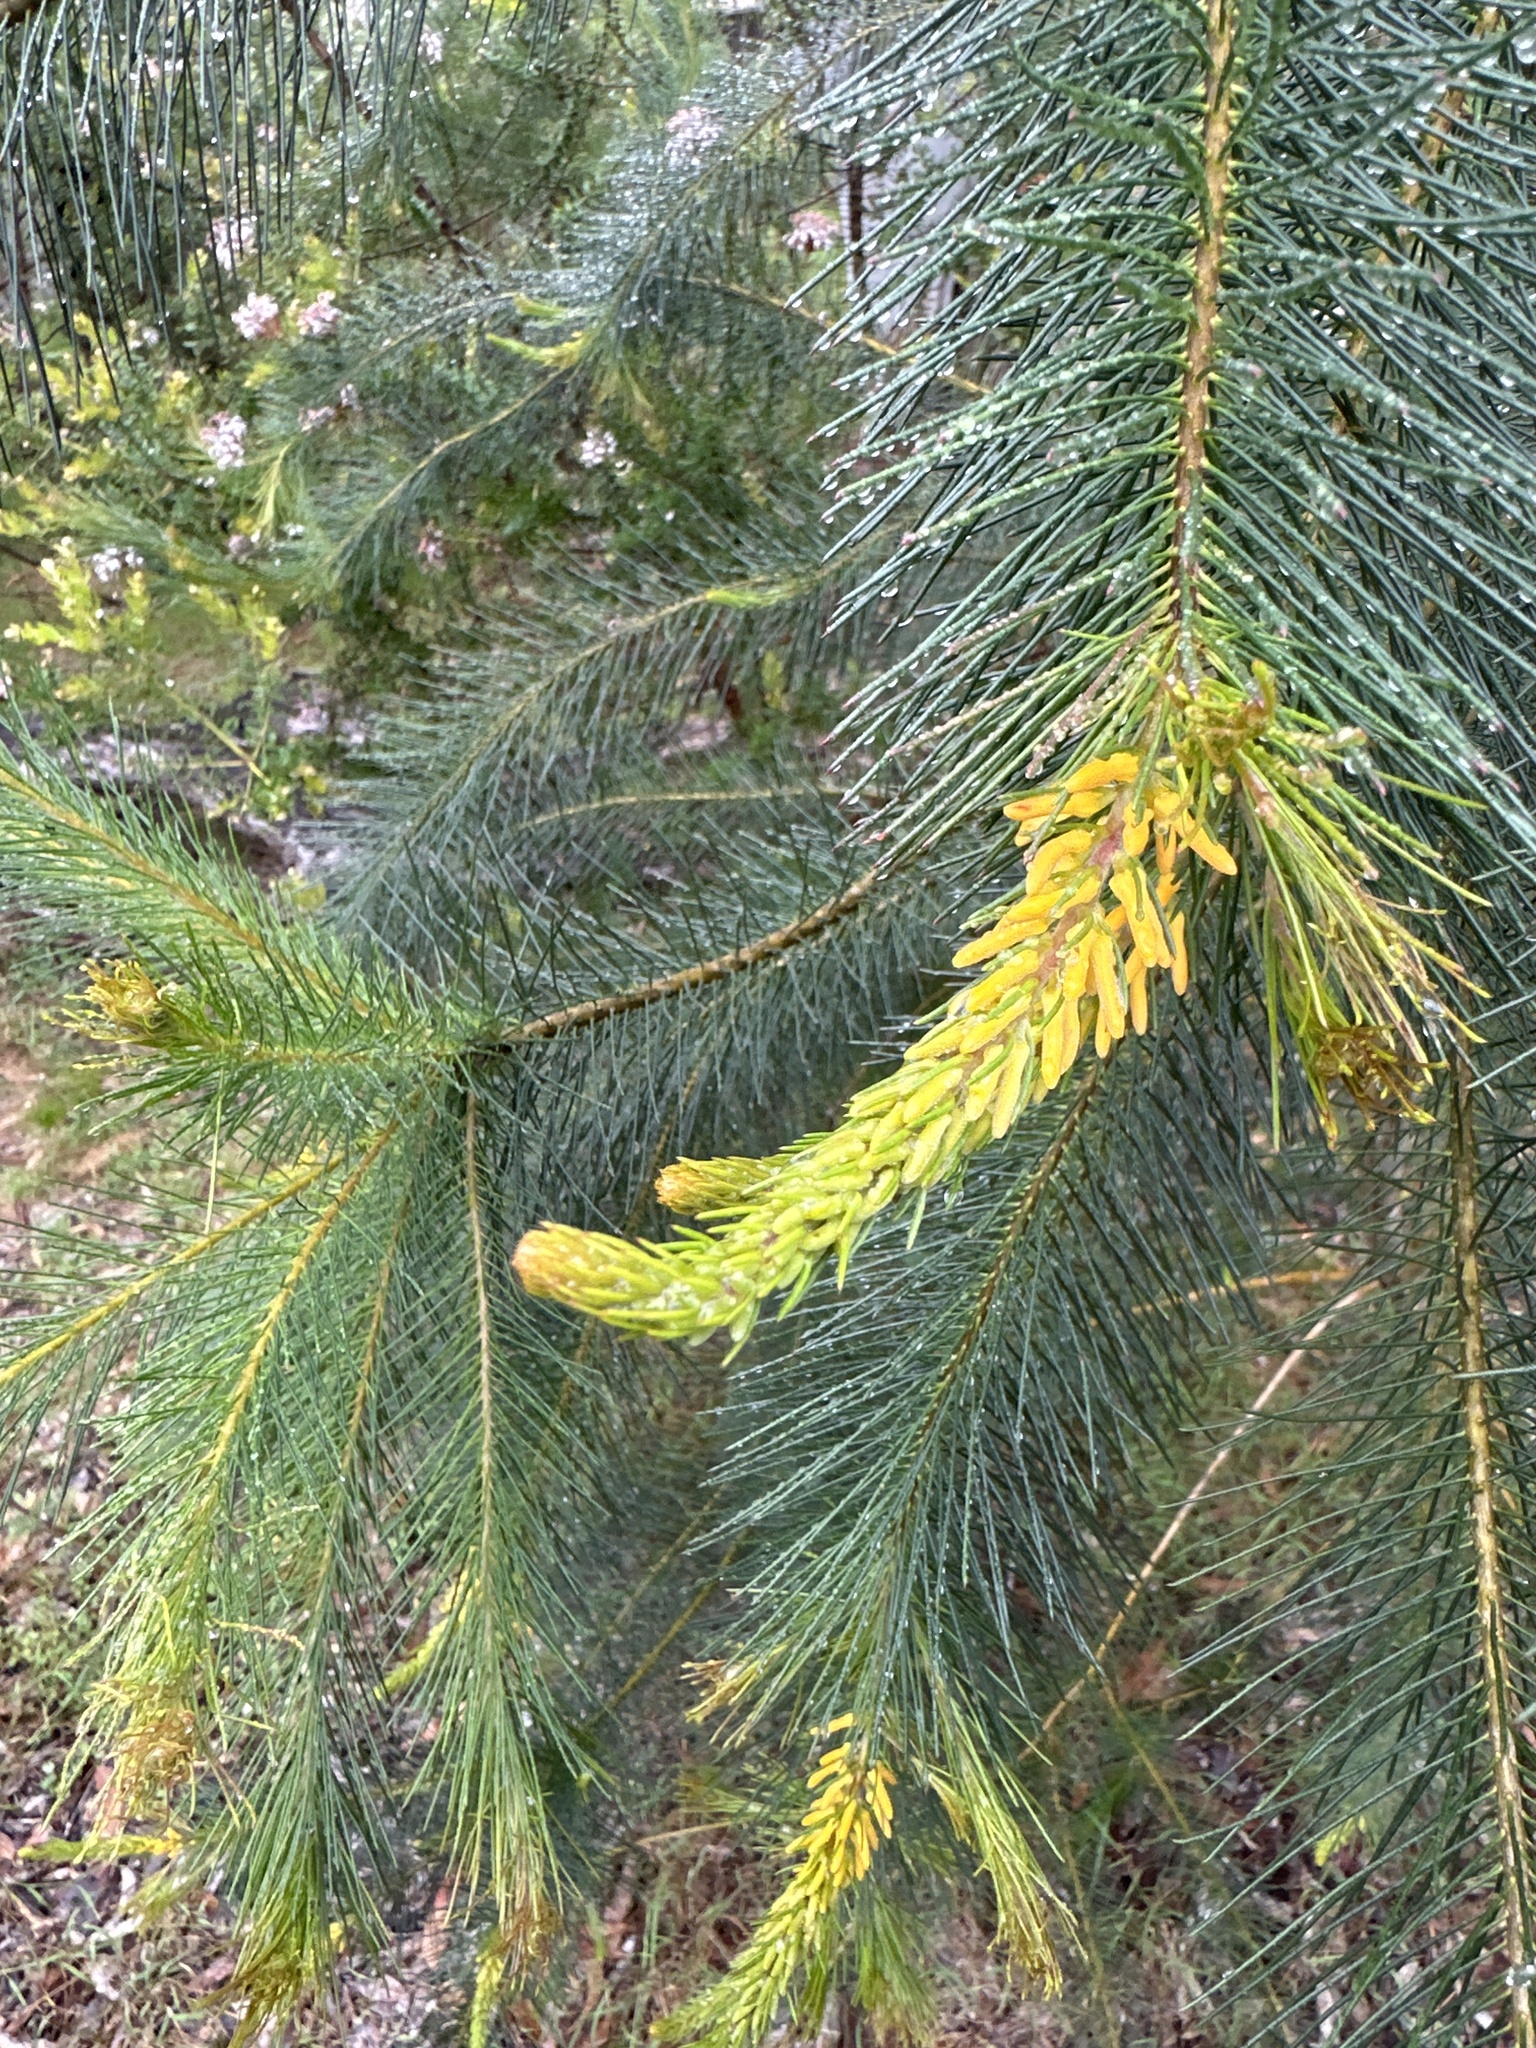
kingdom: Plantae
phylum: Tracheophyta
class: Magnoliopsida
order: Proteales
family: Proteaceae
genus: Persoonia
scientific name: Persoonia pinifolia
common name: Pine-leaf geebung
